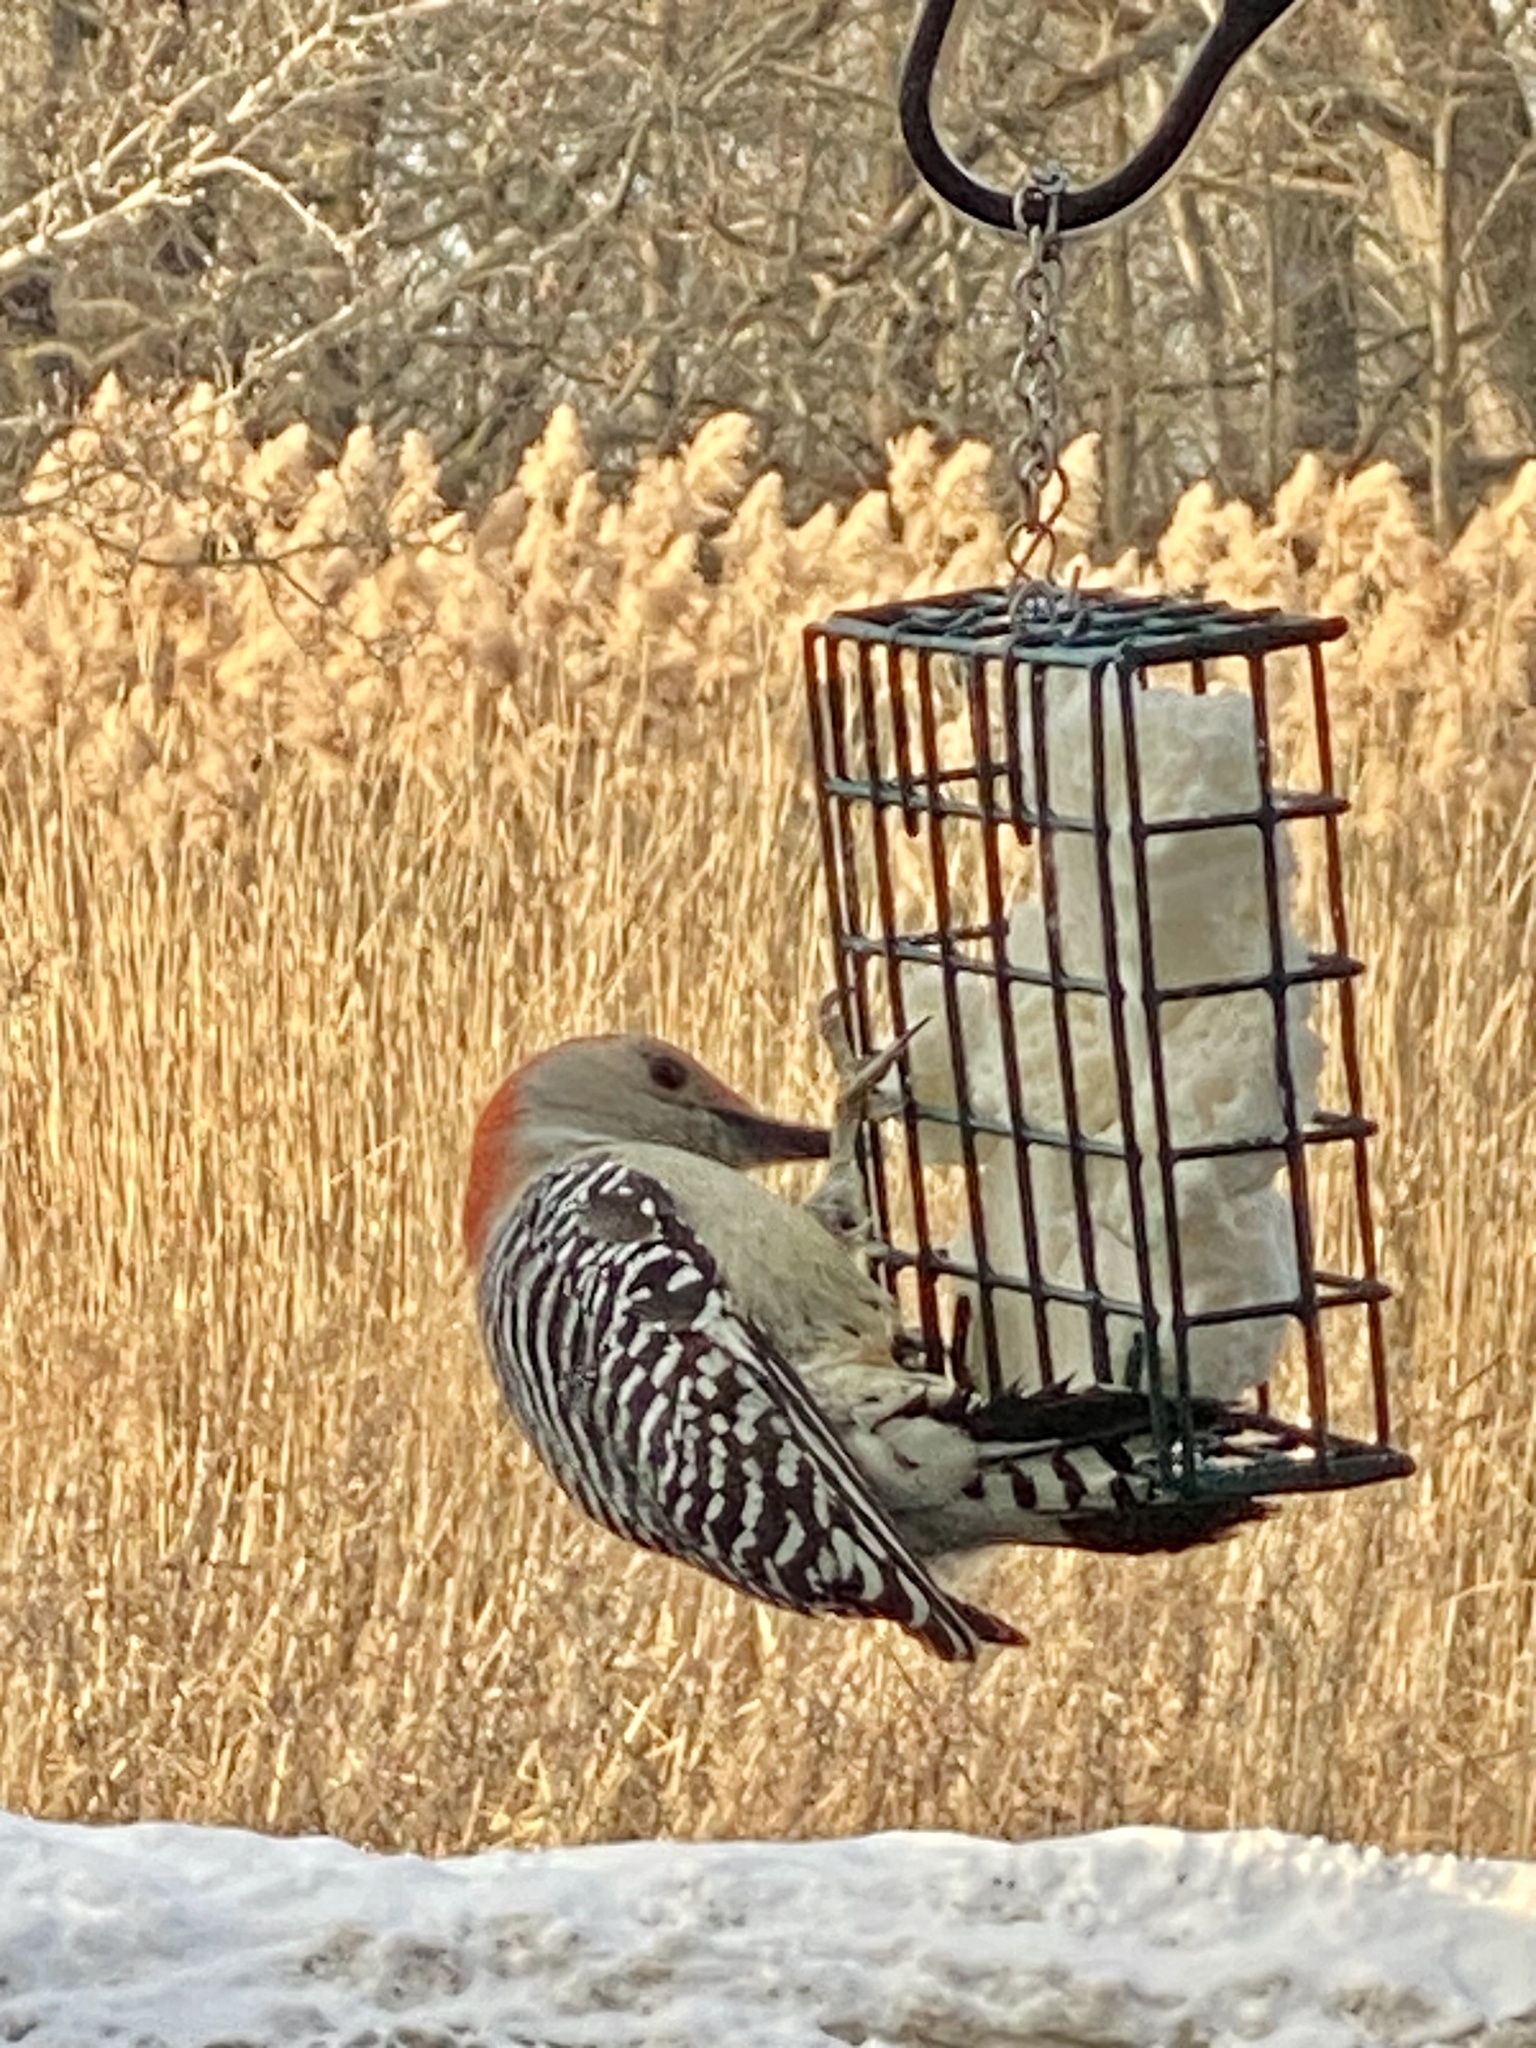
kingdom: Animalia
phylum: Chordata
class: Aves
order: Piciformes
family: Picidae
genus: Melanerpes
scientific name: Melanerpes carolinus
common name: Red-bellied woodpecker
